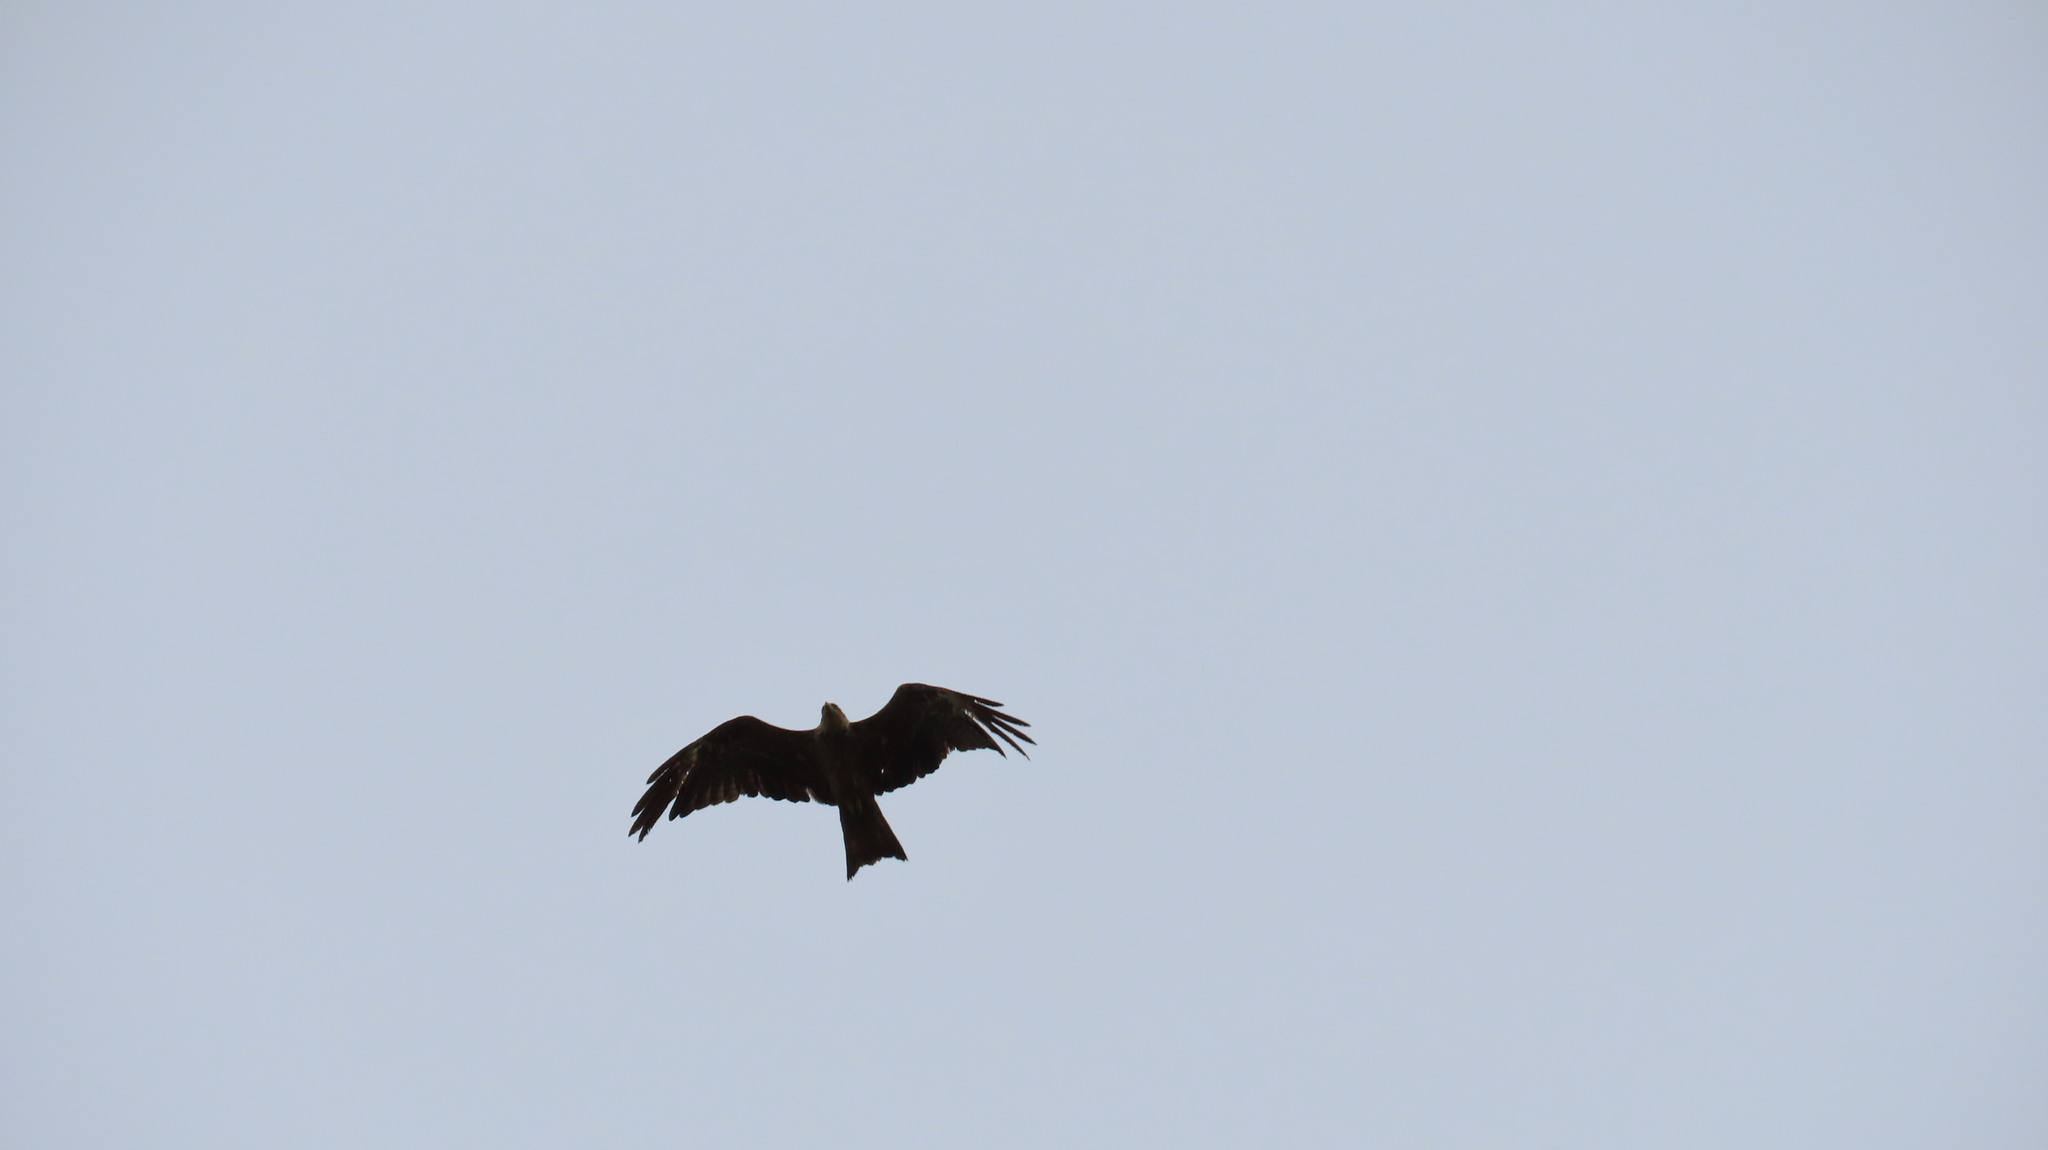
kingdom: Animalia
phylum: Chordata
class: Aves
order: Accipitriformes
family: Accipitridae
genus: Milvus
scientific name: Milvus migrans
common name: Black kite
